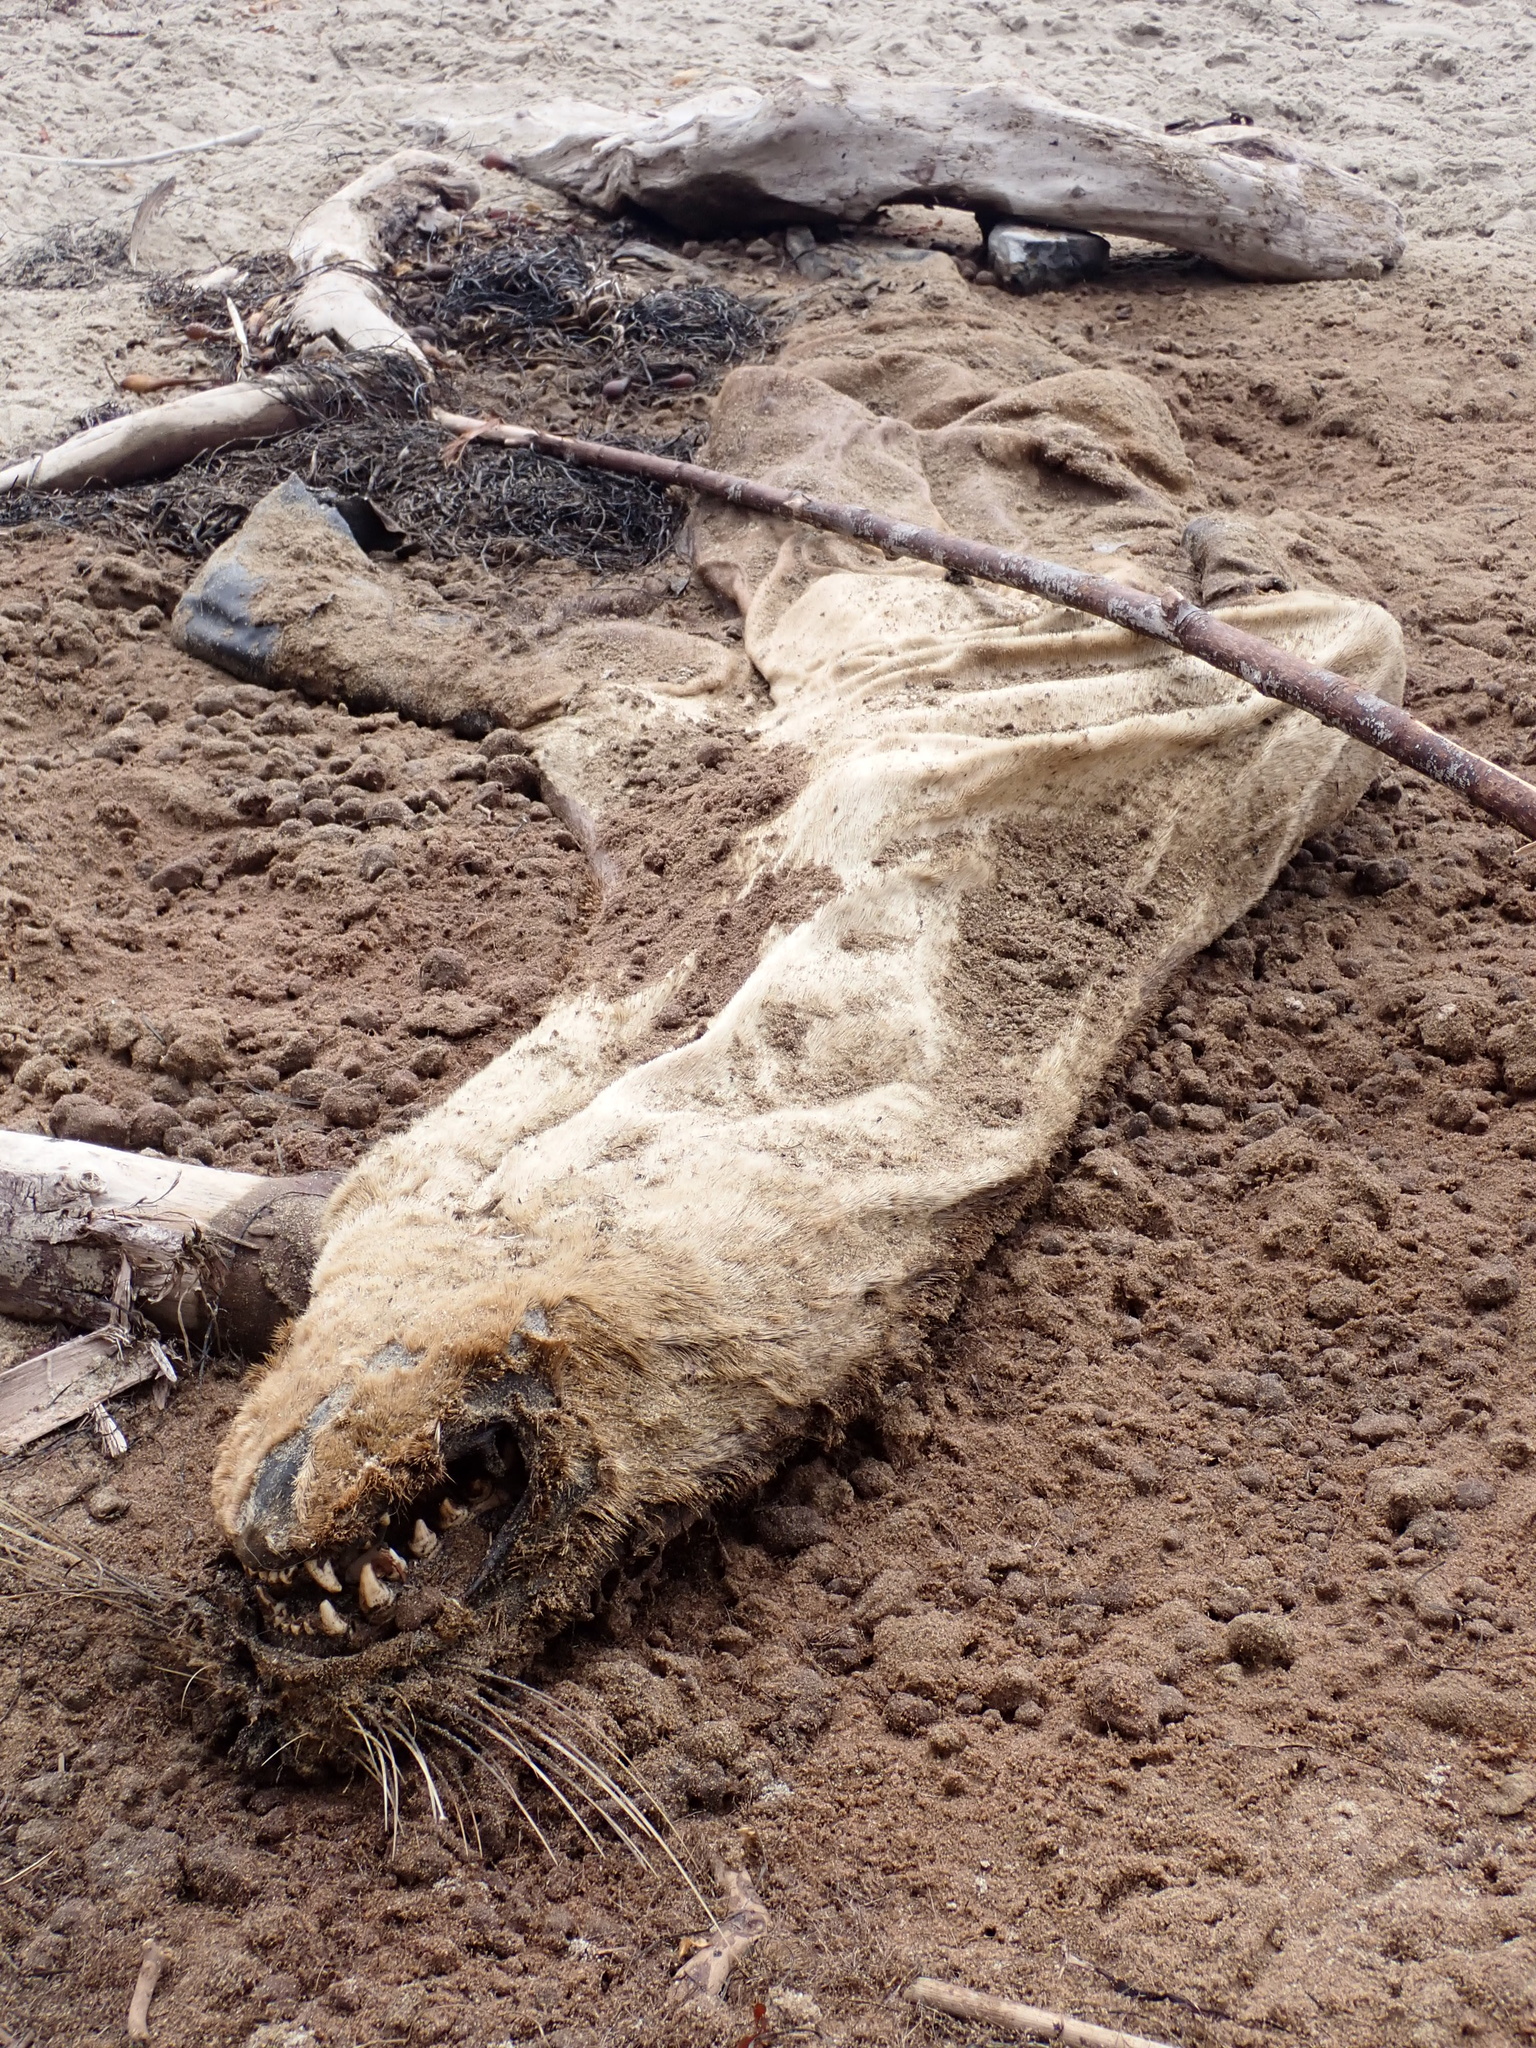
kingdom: Animalia
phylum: Chordata
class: Mammalia
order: Carnivora
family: Otariidae
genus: Zalophus
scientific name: Zalophus californianus
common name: California sea lion
